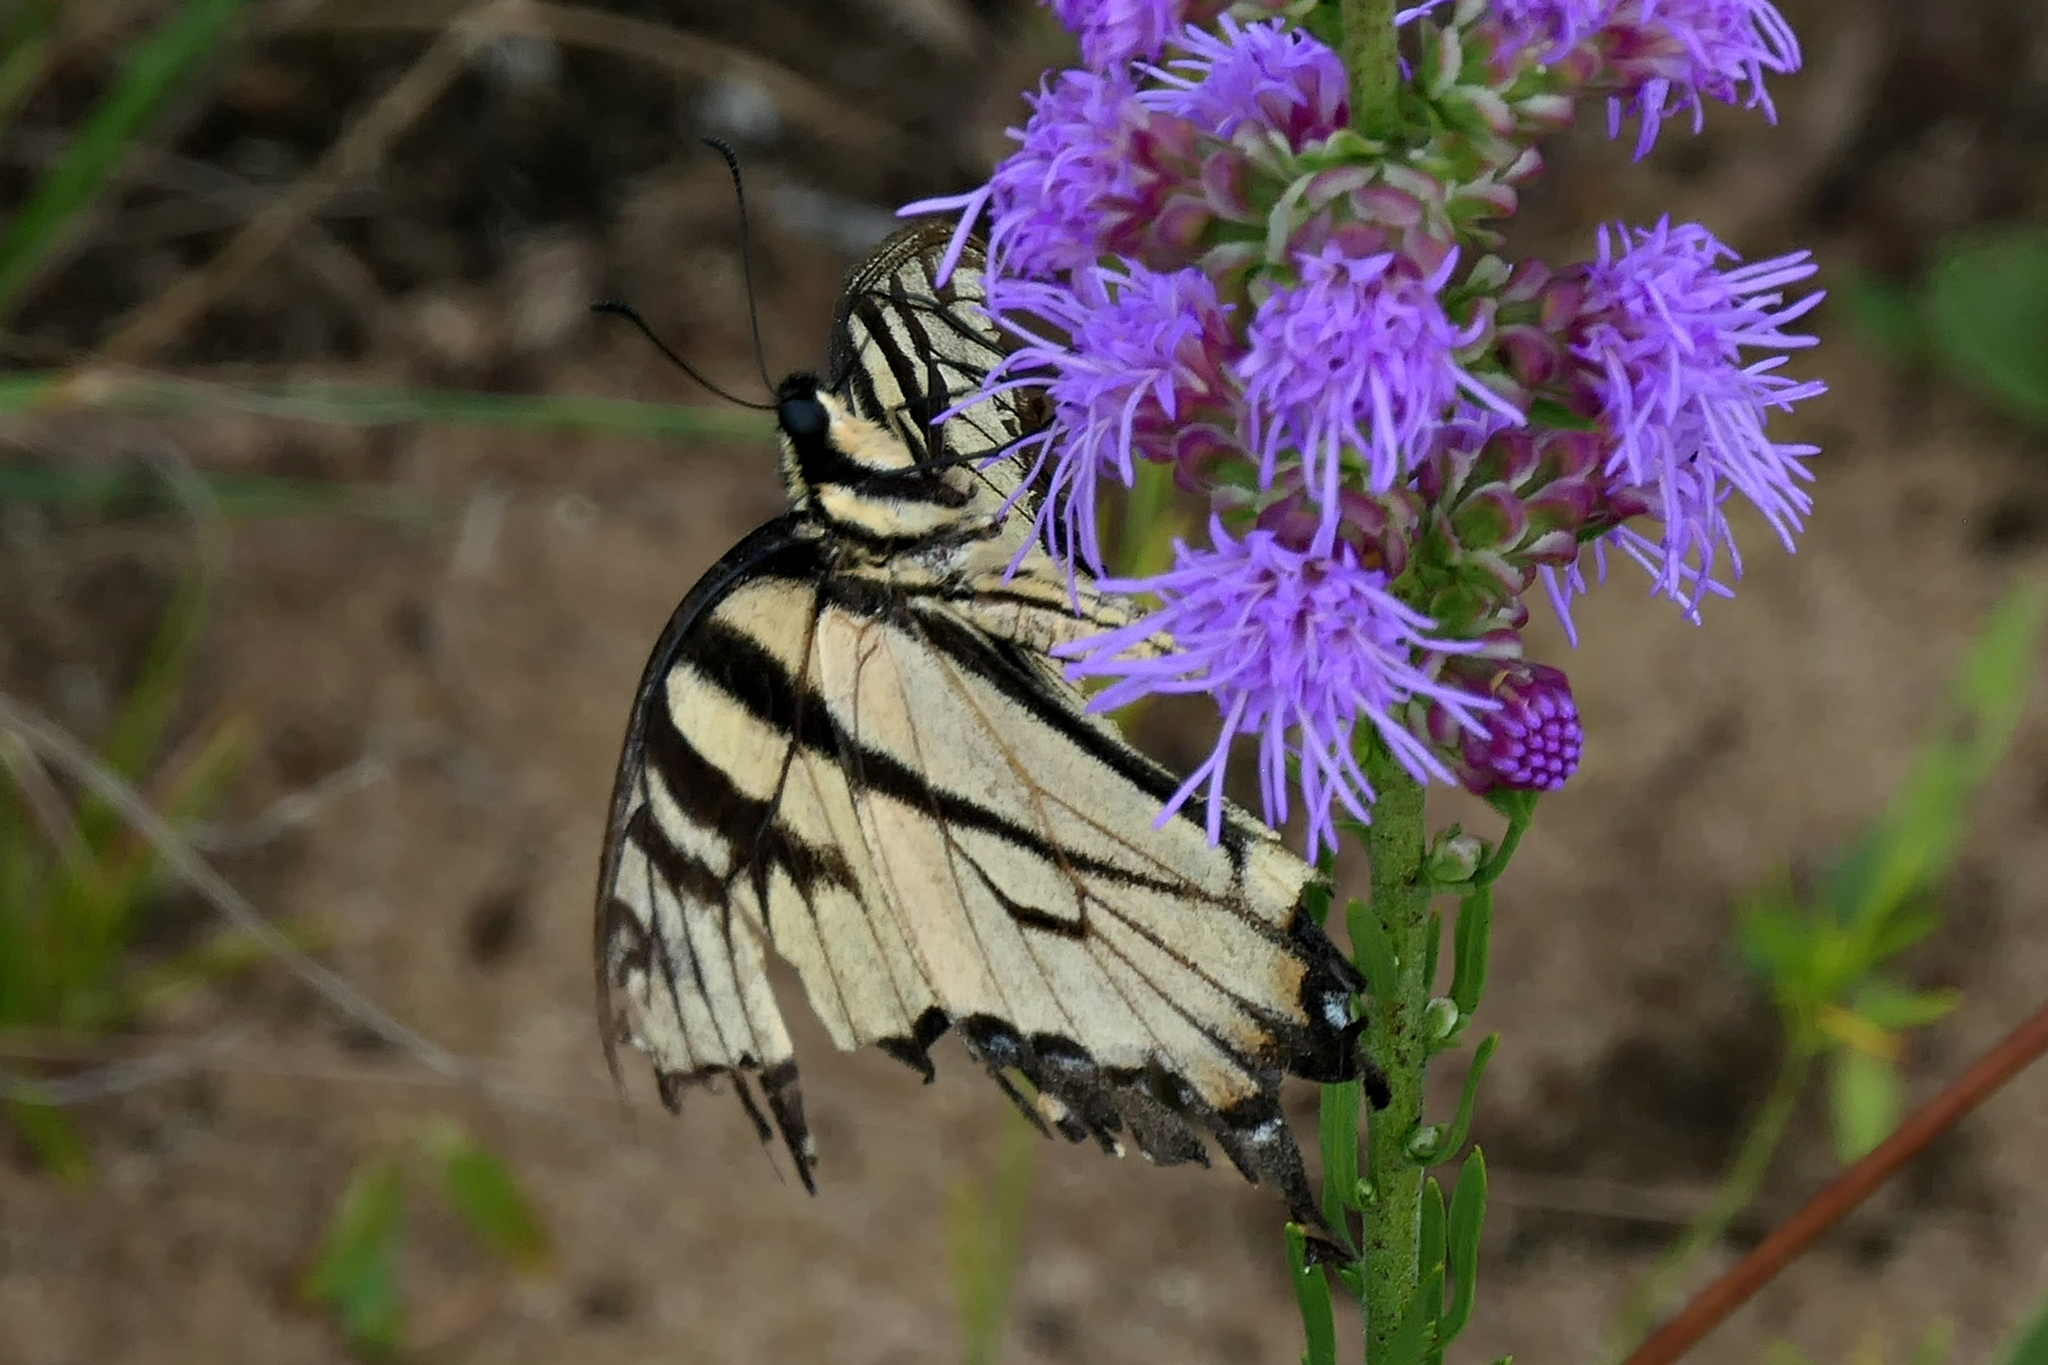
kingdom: Animalia
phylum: Arthropoda
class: Insecta
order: Lepidoptera
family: Papilionidae
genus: Papilio
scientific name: Papilio glaucus
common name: Tiger swallowtail
